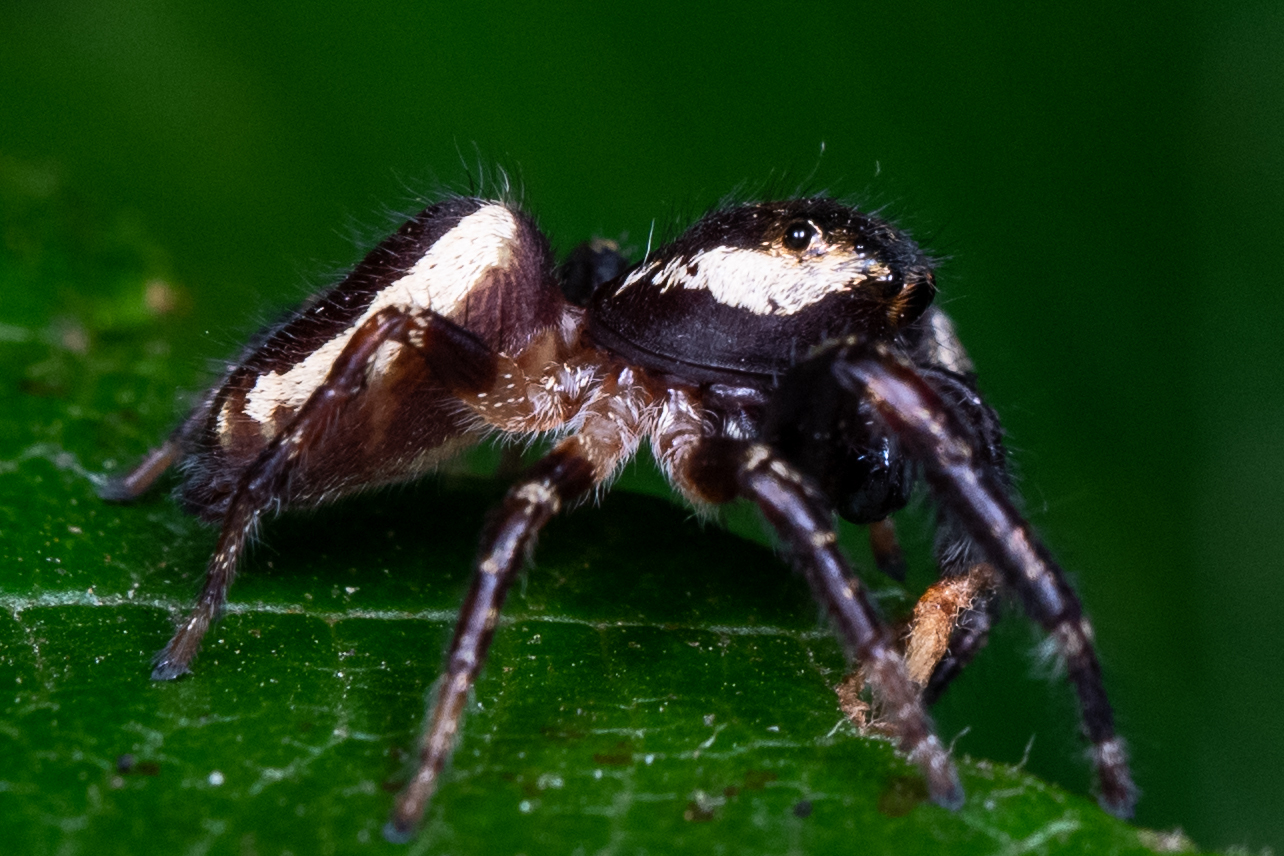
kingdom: Animalia
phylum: Arthropoda
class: Arachnida
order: Araneae
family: Salticidae
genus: Eris
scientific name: Eris militaris
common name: Bronze jumper
